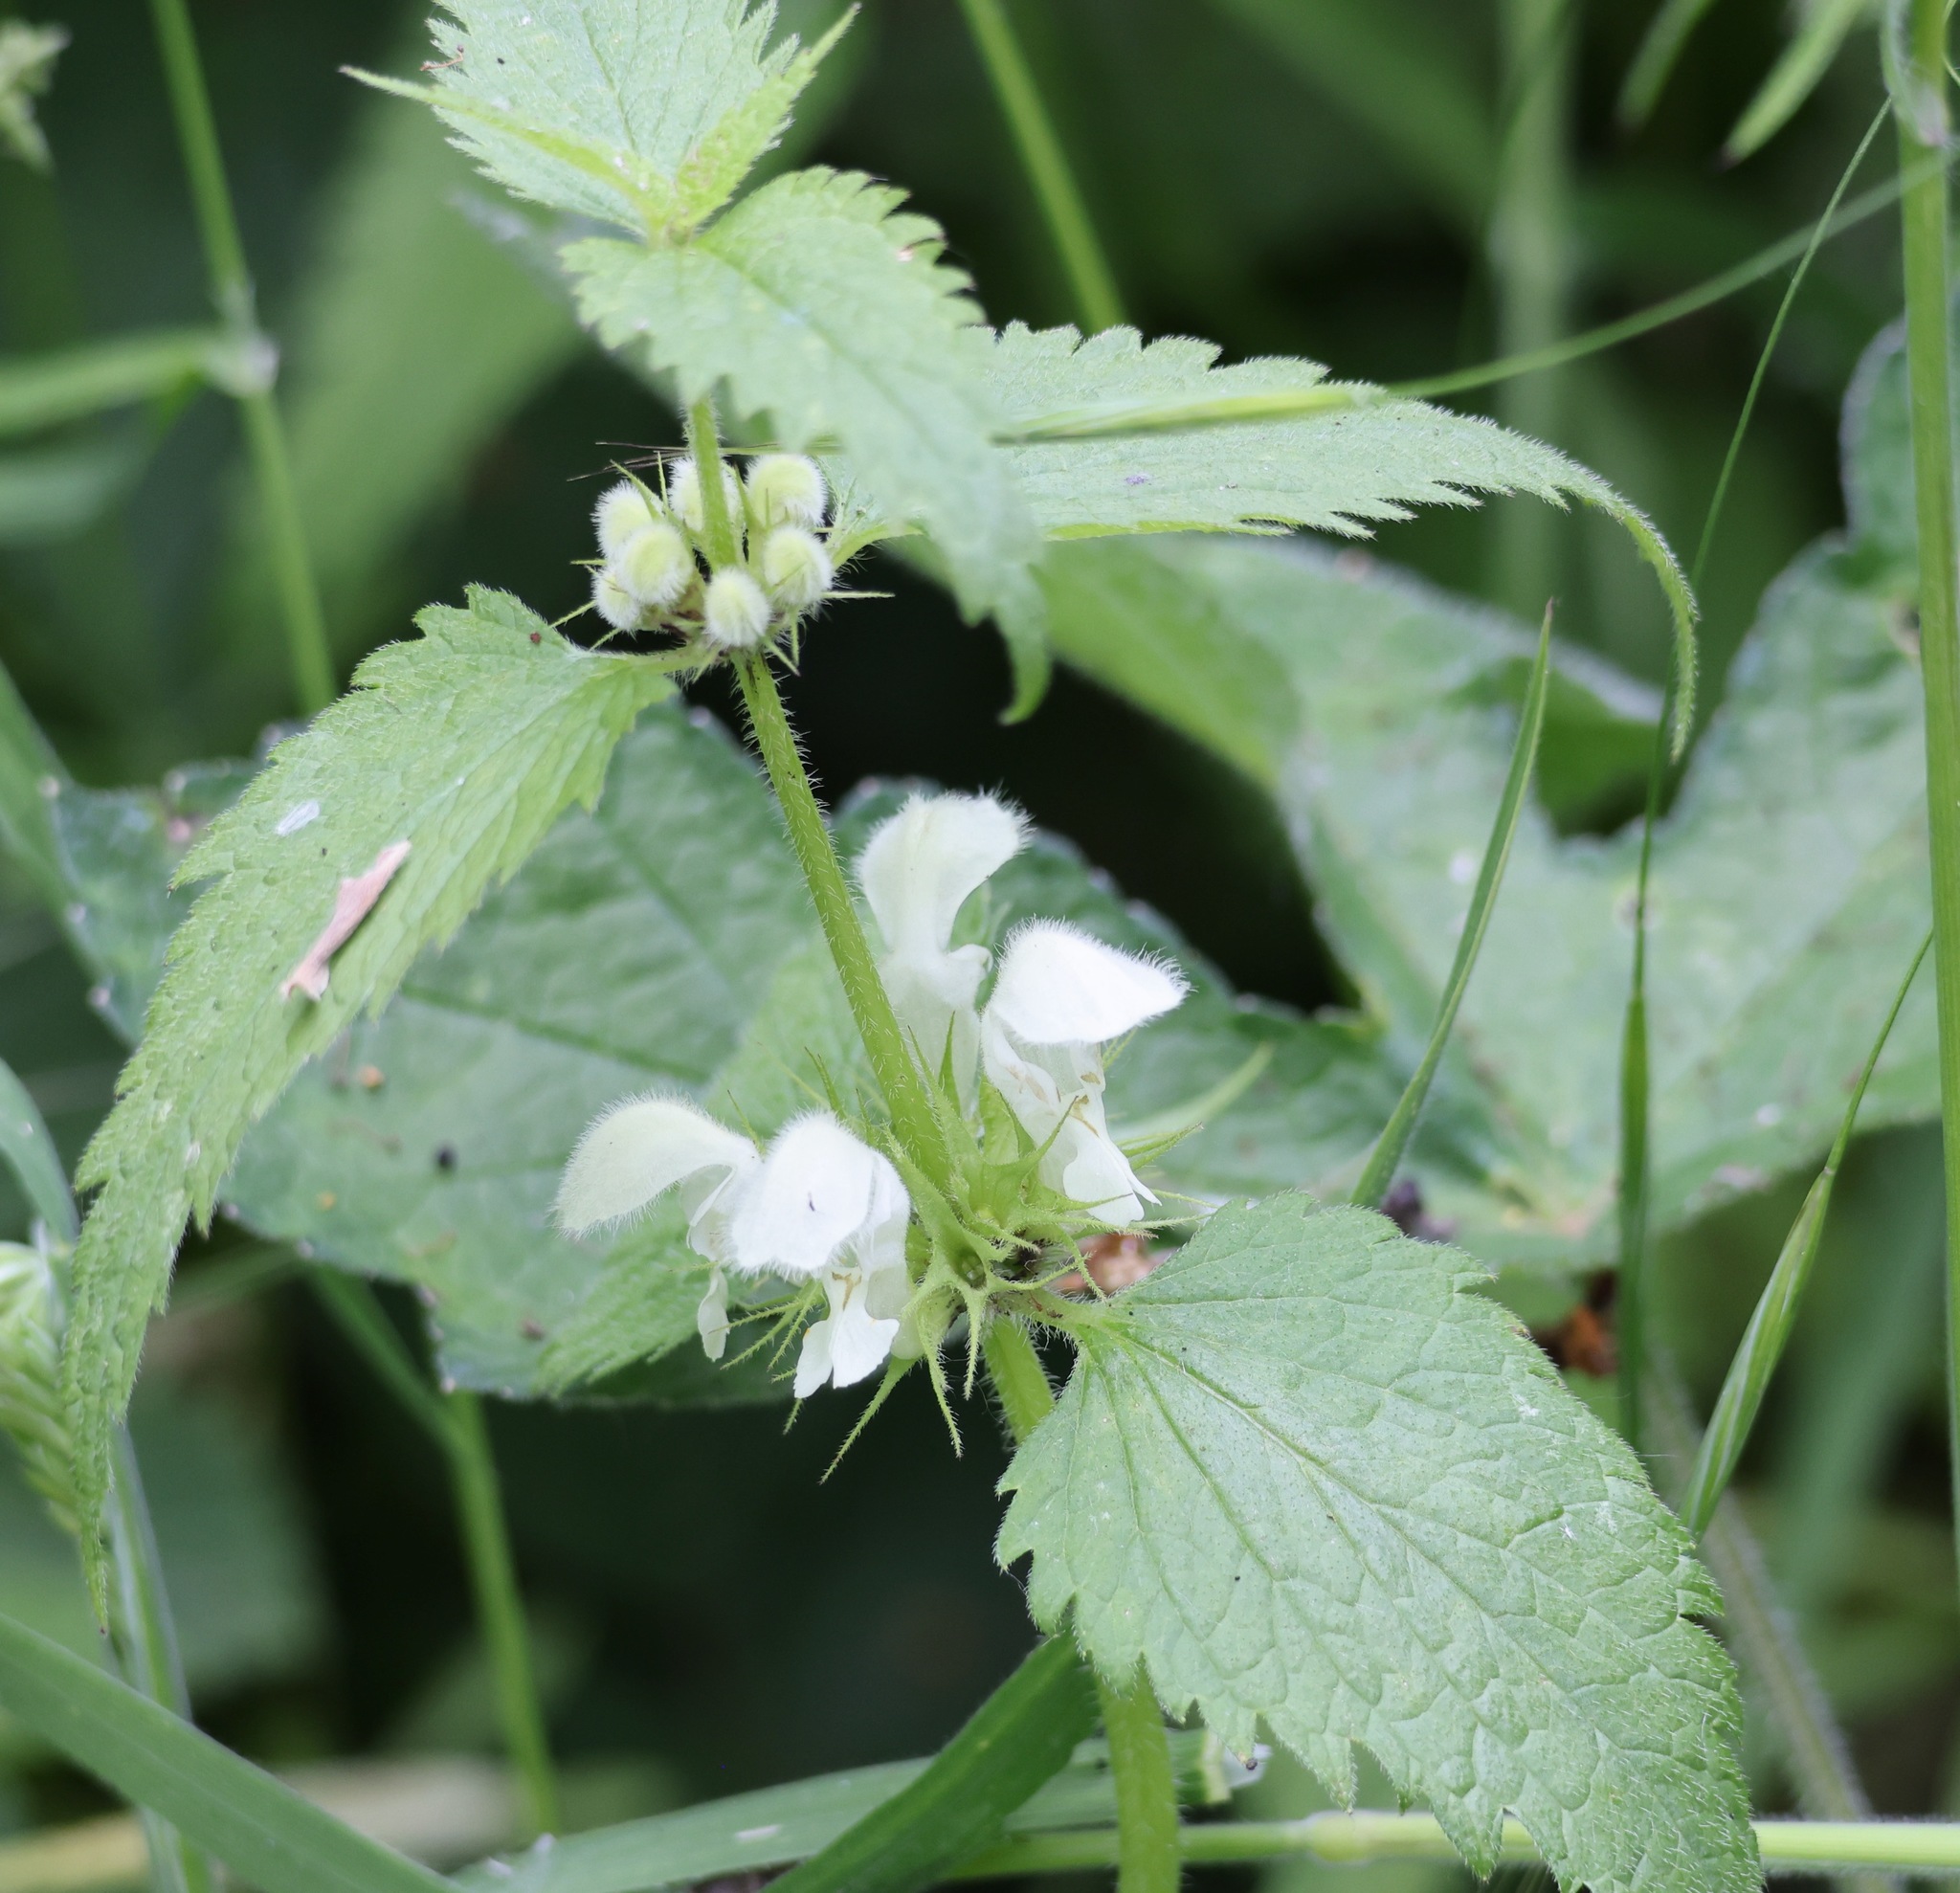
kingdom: Plantae
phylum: Tracheophyta
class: Magnoliopsida
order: Lamiales
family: Lamiaceae
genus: Lamium
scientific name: Lamium album
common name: White dead-nettle
